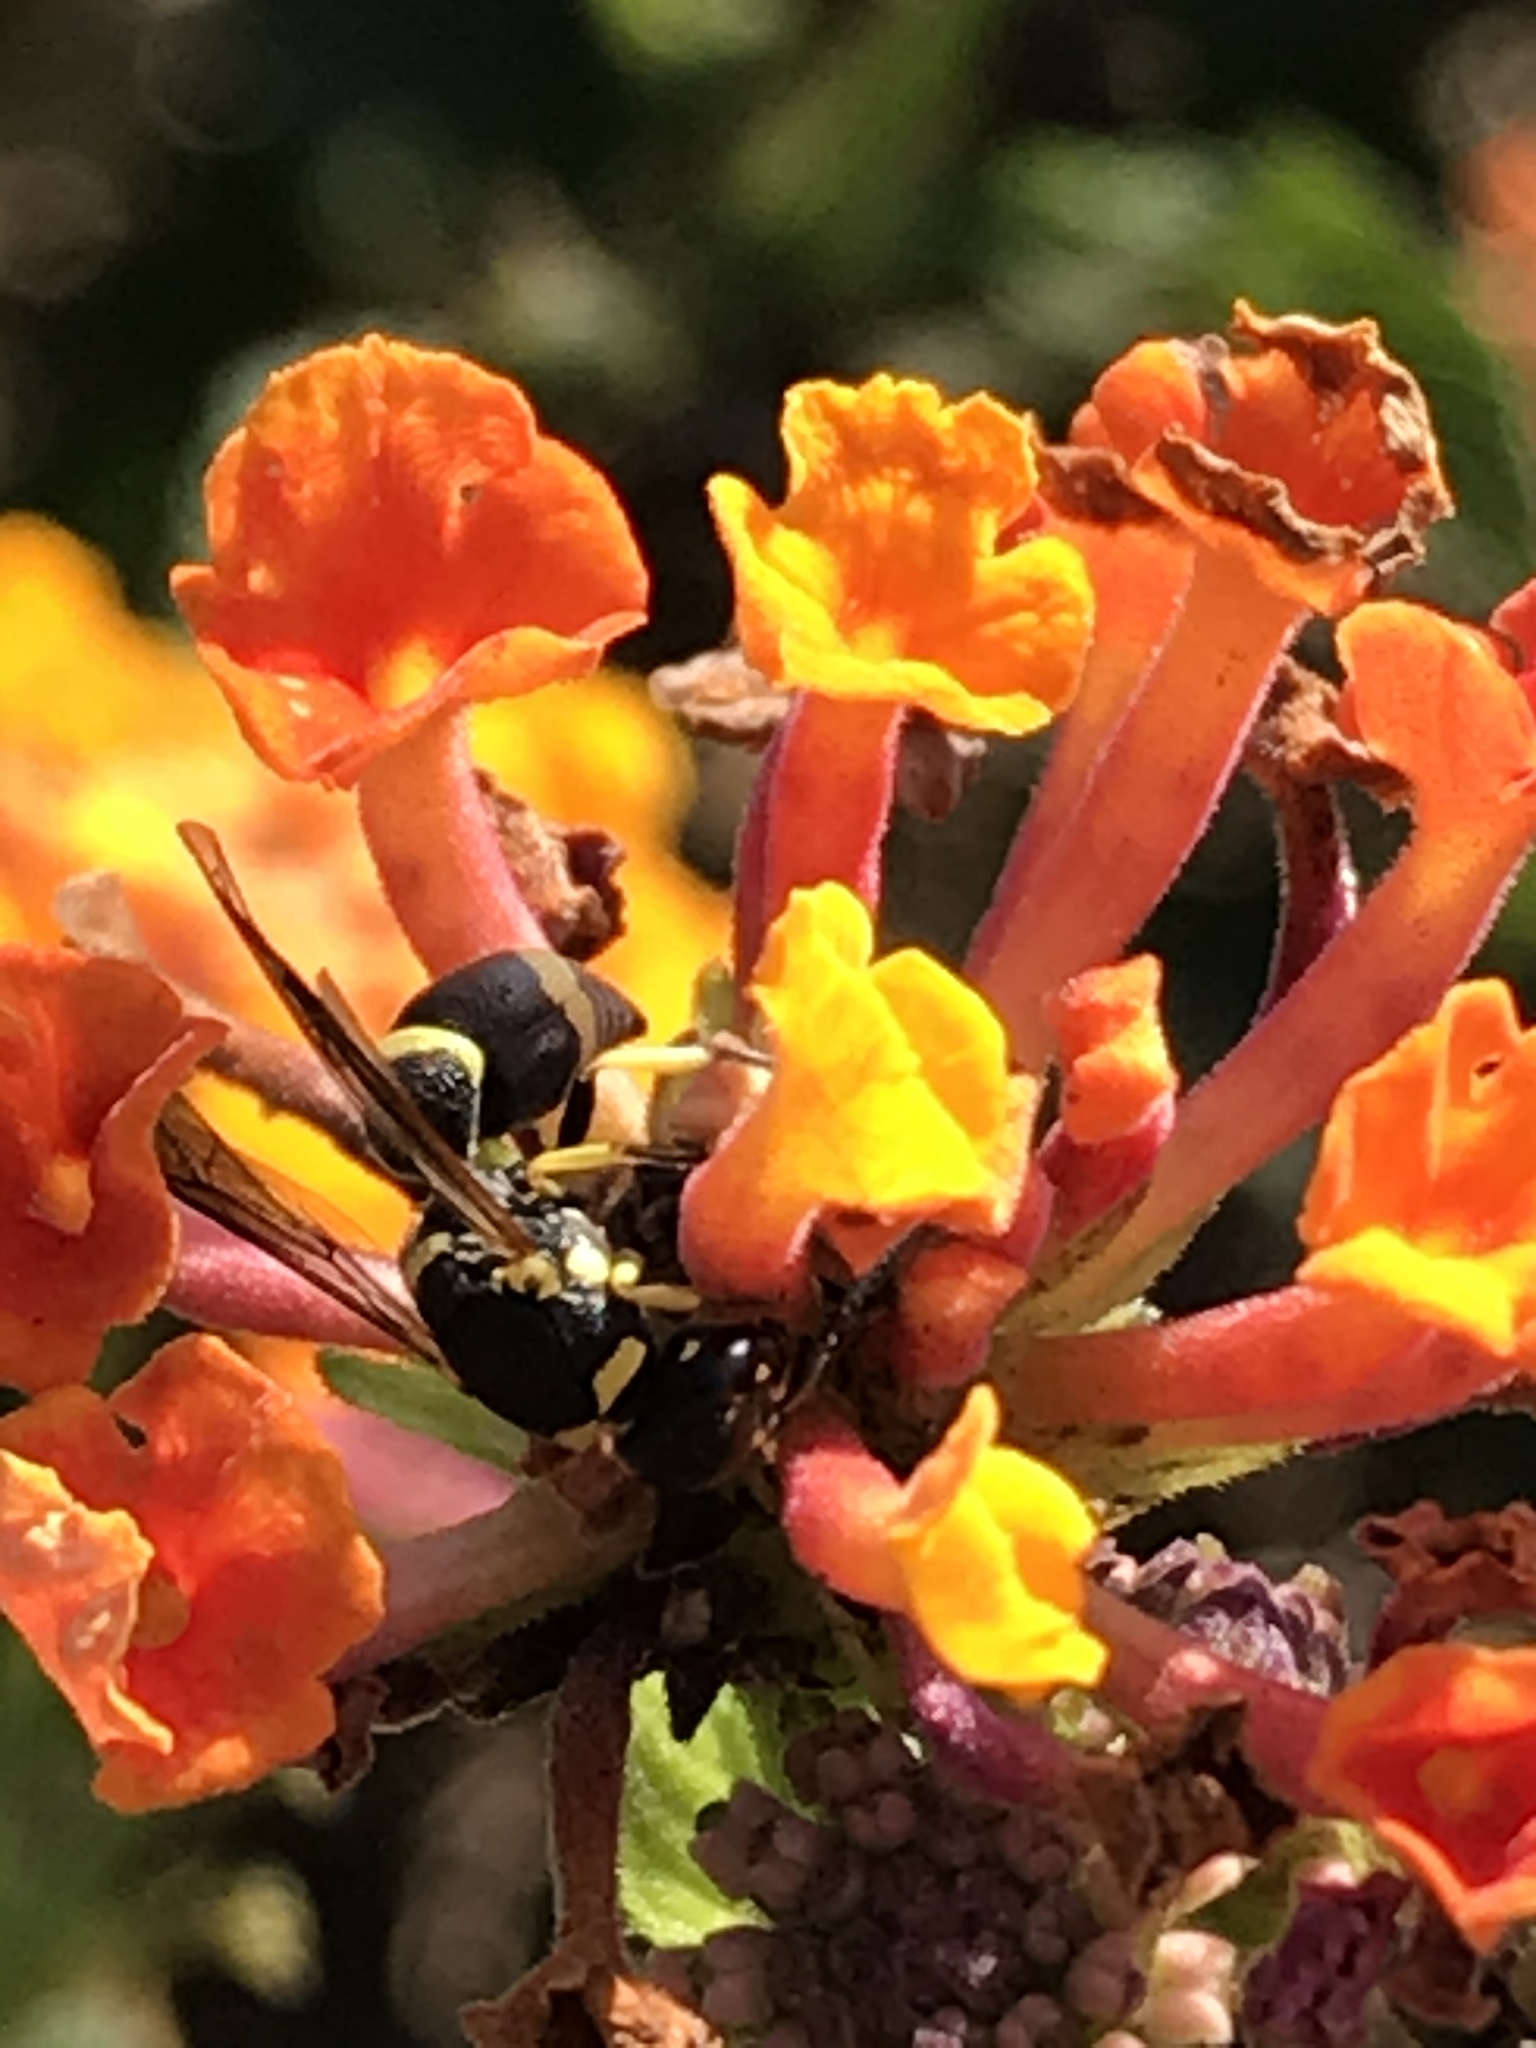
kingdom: Animalia
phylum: Arthropoda
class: Insecta
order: Hymenoptera
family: Eumenidae
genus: Parancistrocerus
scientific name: Parancistrocerus declivatus
